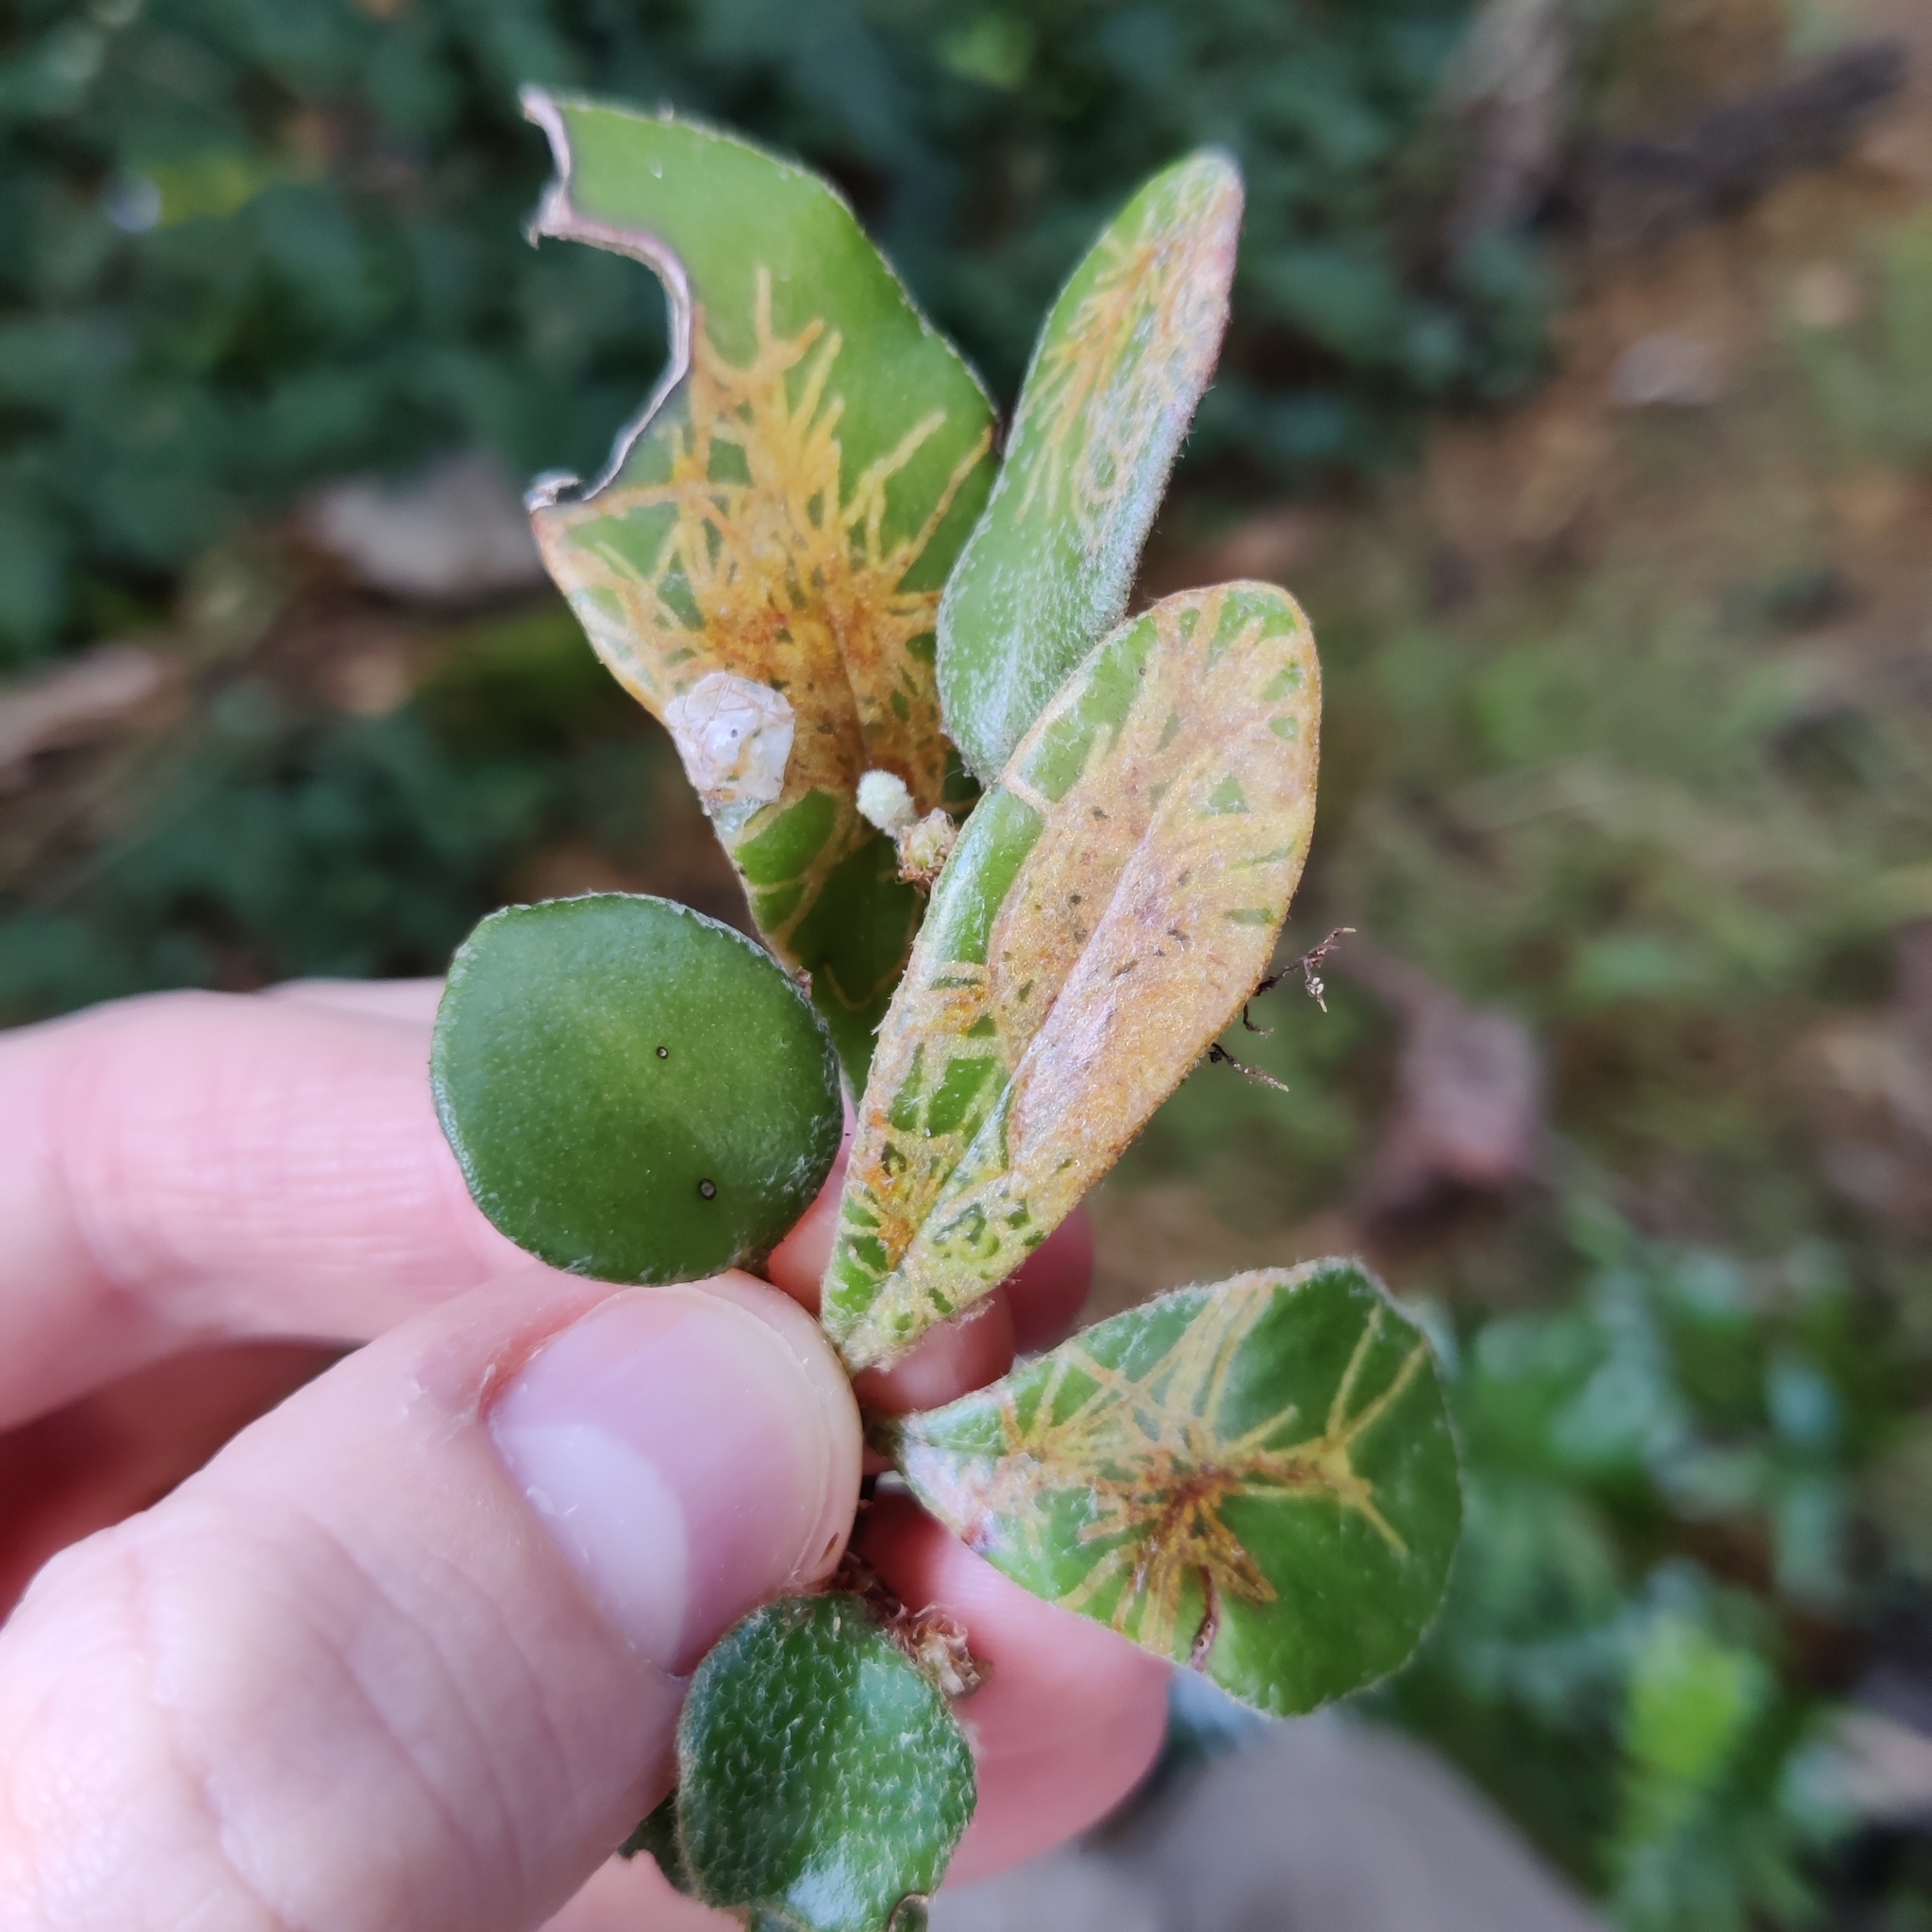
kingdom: Animalia
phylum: Arthropoda
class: Insecta
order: Lepidoptera
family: Tortricidae
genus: Philocryptica
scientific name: Philocryptica polypodii
